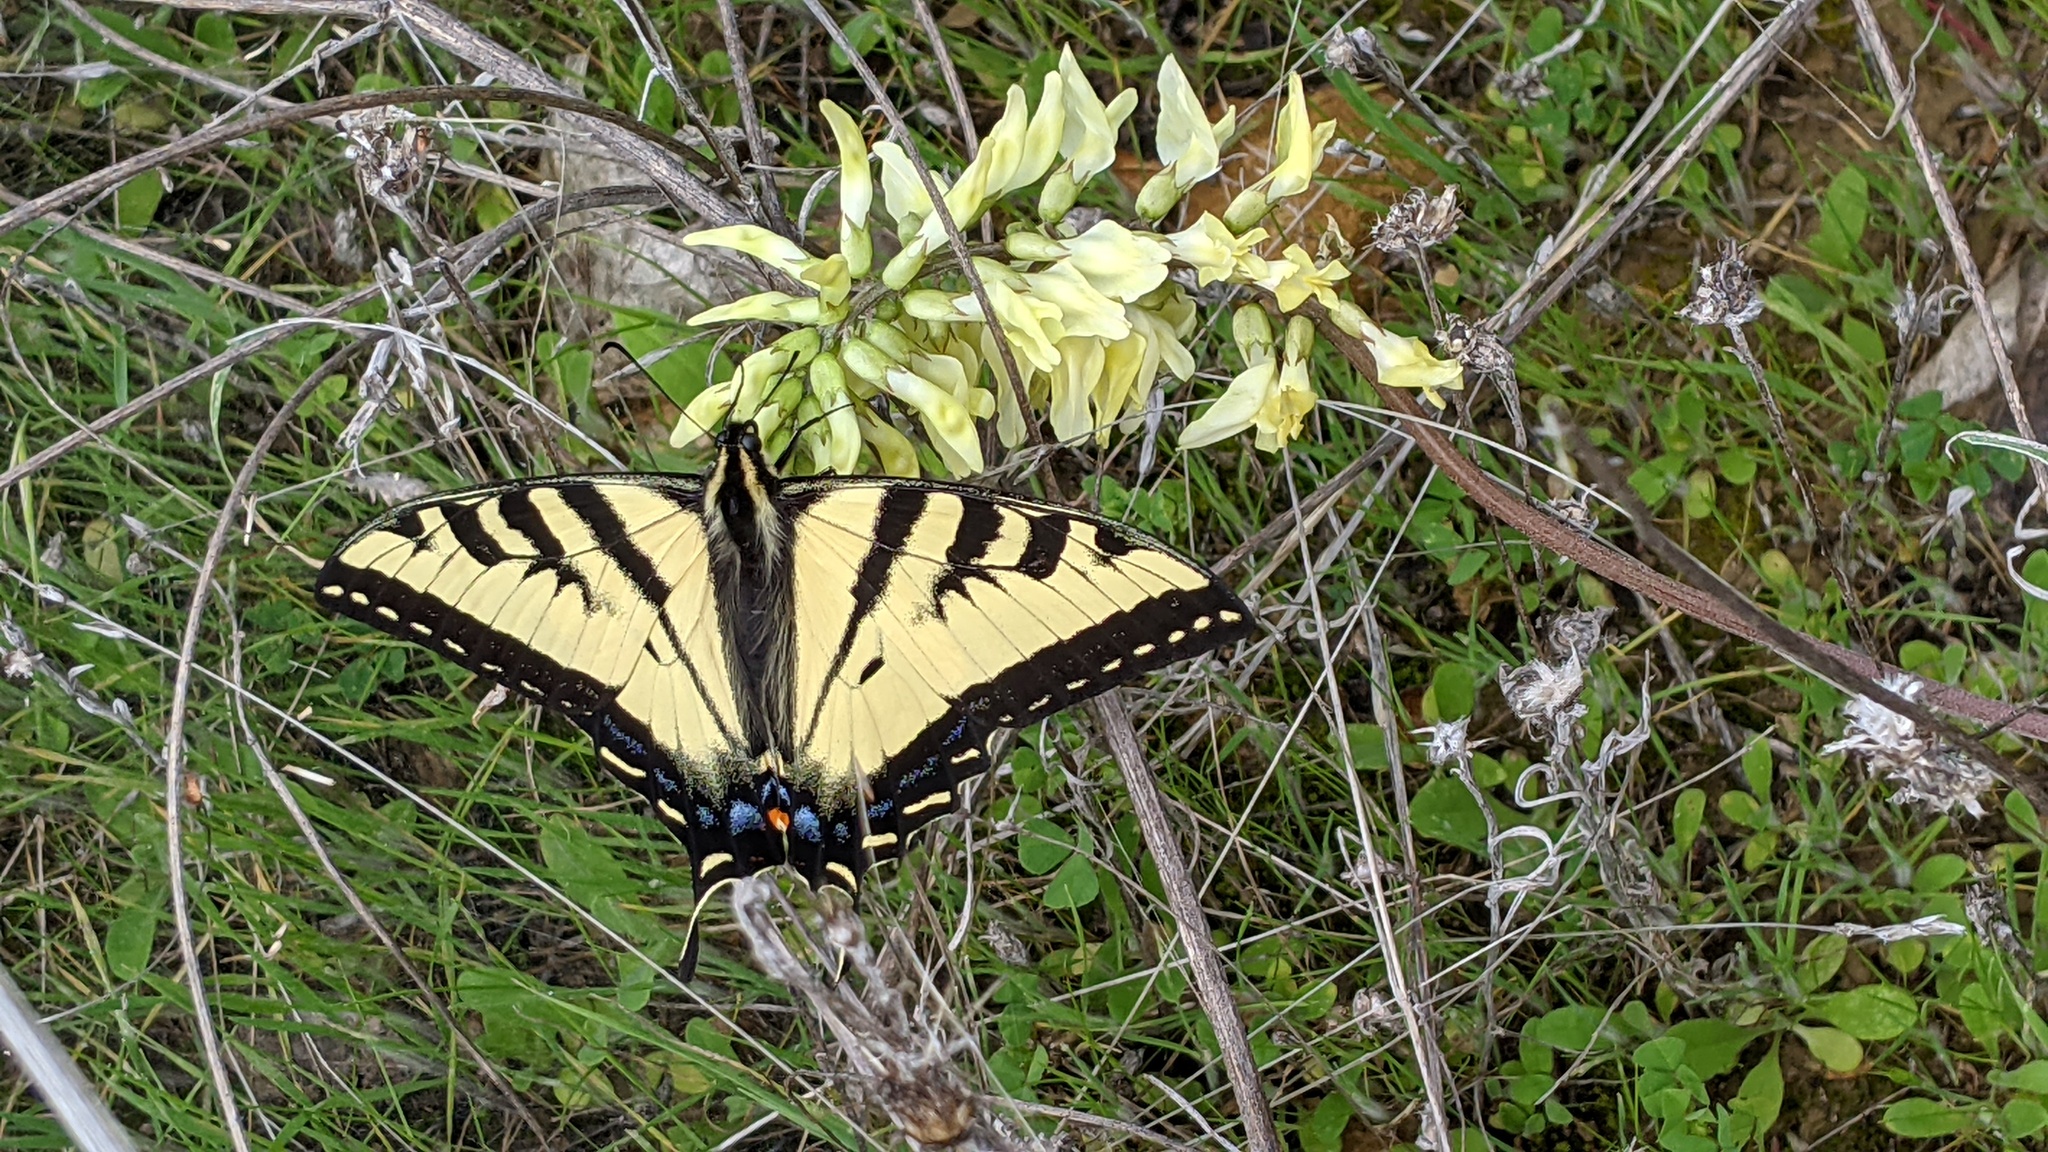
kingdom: Animalia
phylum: Arthropoda
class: Insecta
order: Lepidoptera
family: Papilionidae
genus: Papilio
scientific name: Papilio rutulus
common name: Western tiger swallowtail
